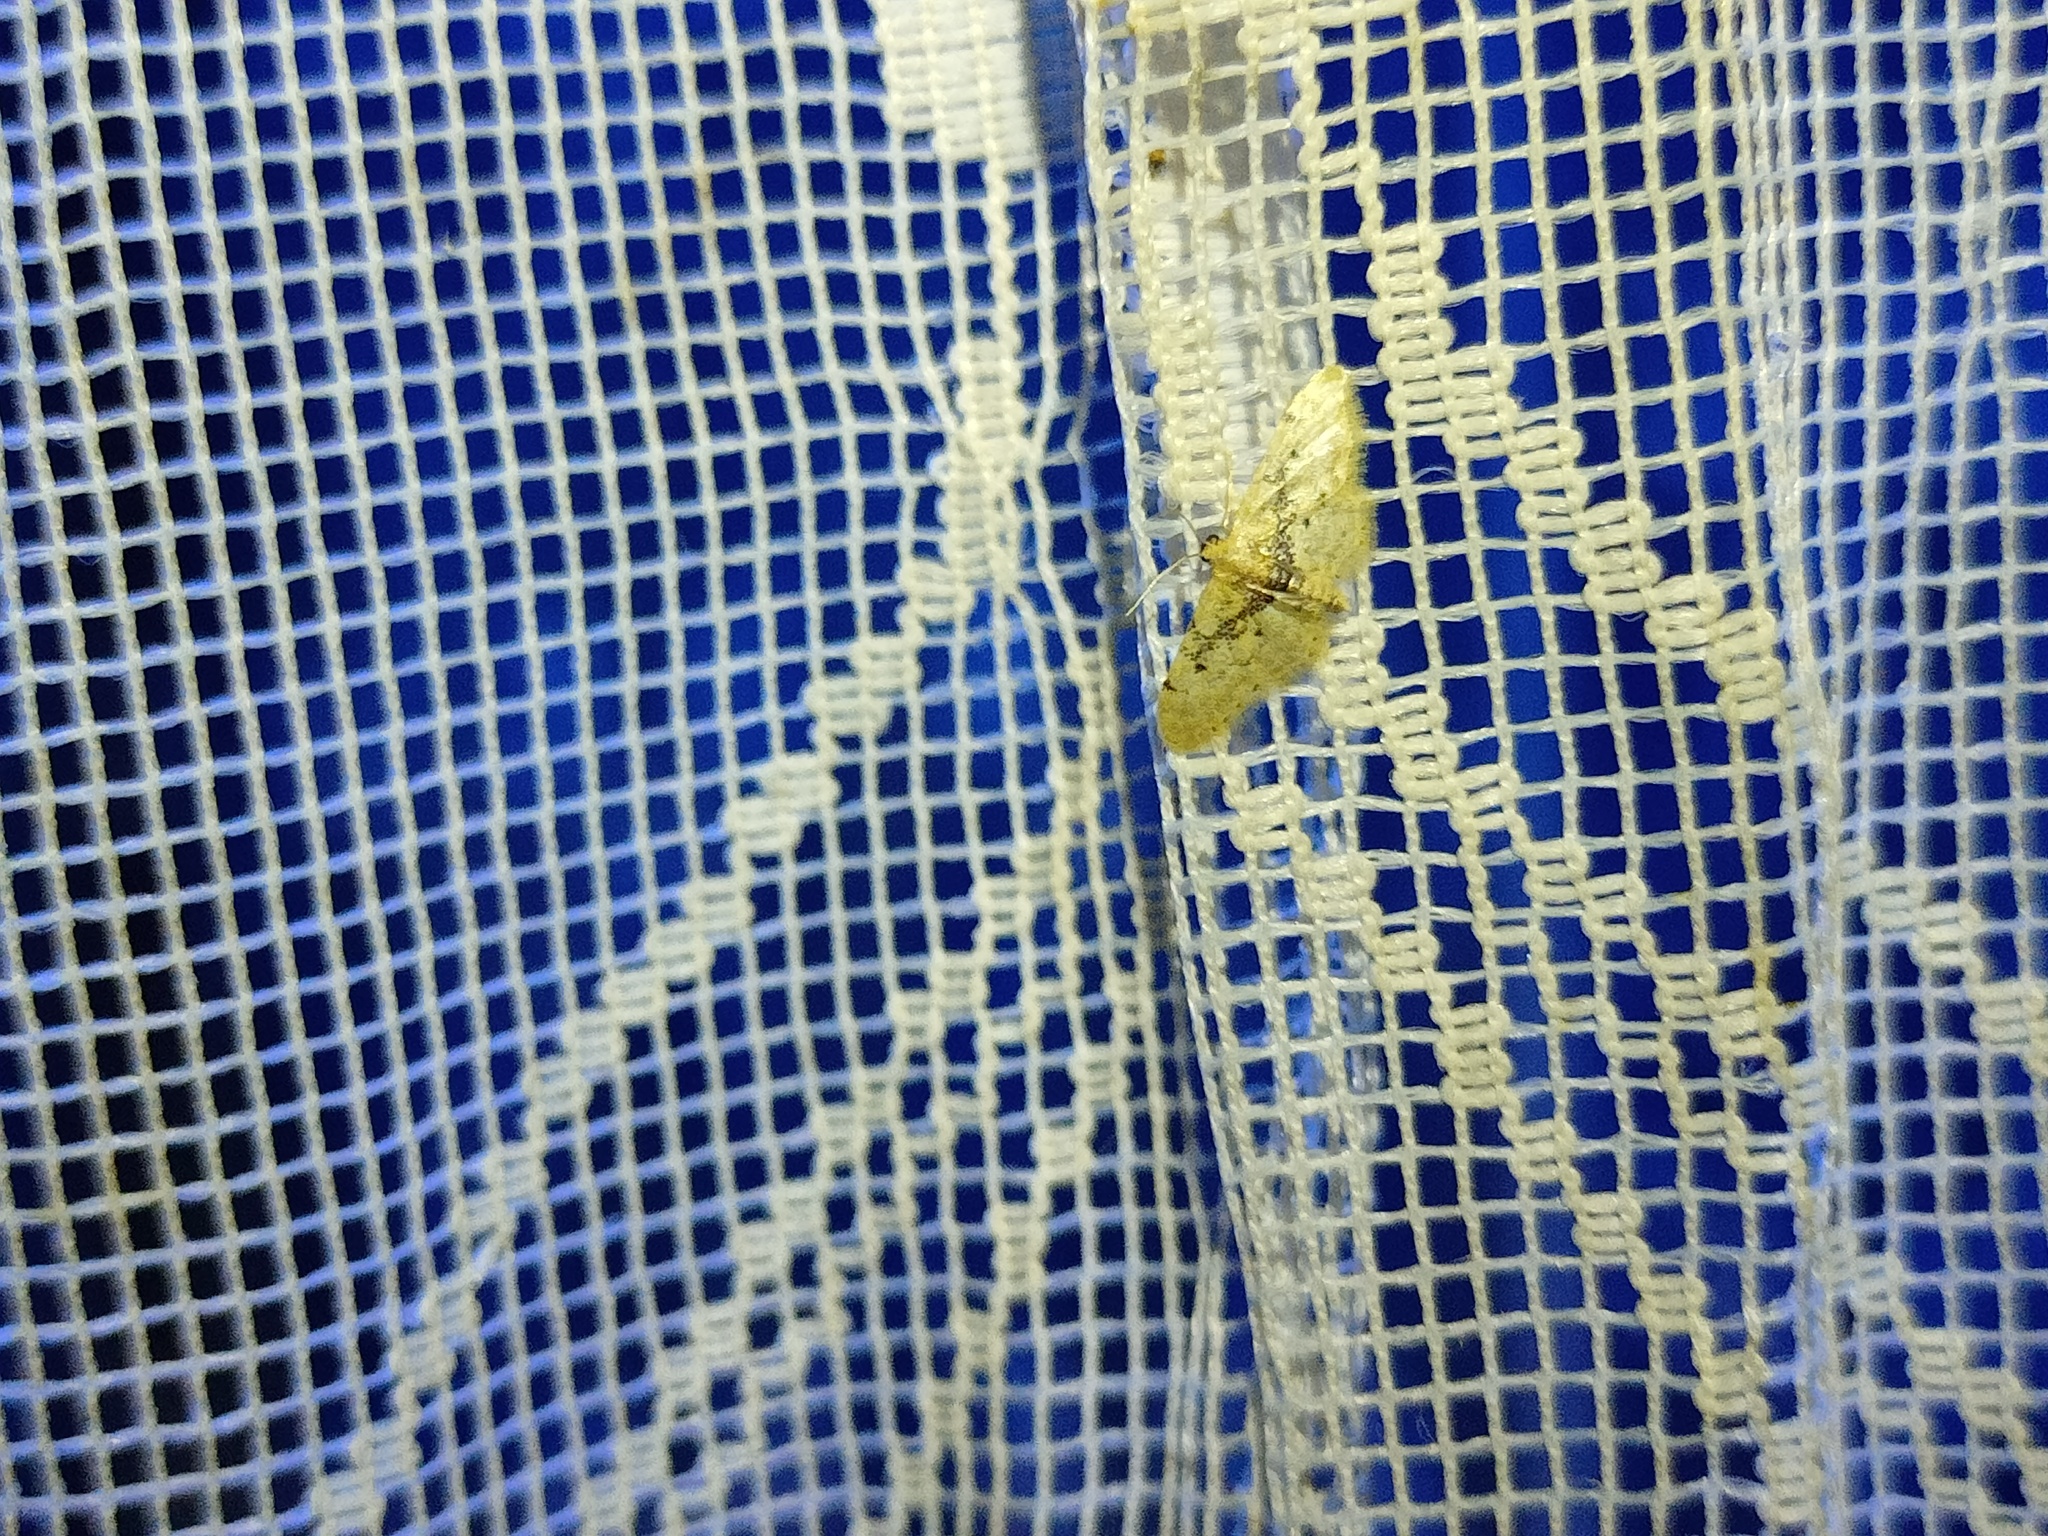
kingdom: Animalia
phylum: Arthropoda
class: Insecta
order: Lepidoptera
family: Geometridae
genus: Idaea
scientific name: Idaea intermedia
